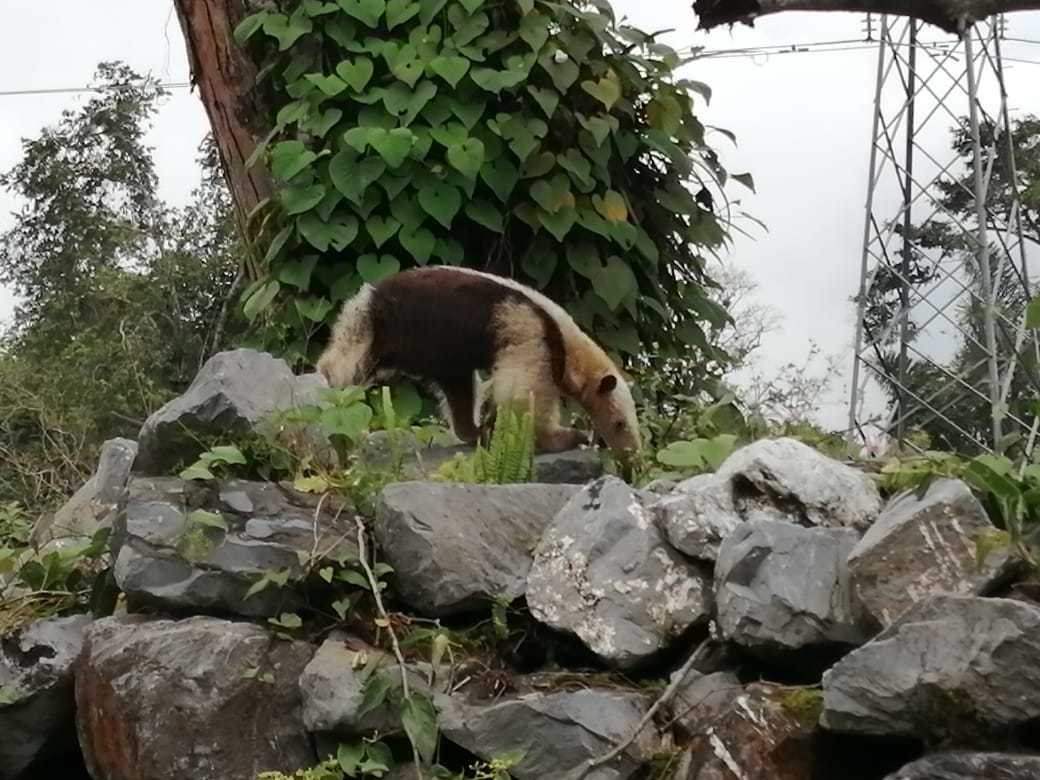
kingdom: Animalia
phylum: Chordata
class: Mammalia
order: Pilosa
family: Myrmecophagidae
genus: Tamandua
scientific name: Tamandua mexicana
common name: Northern tamandua
